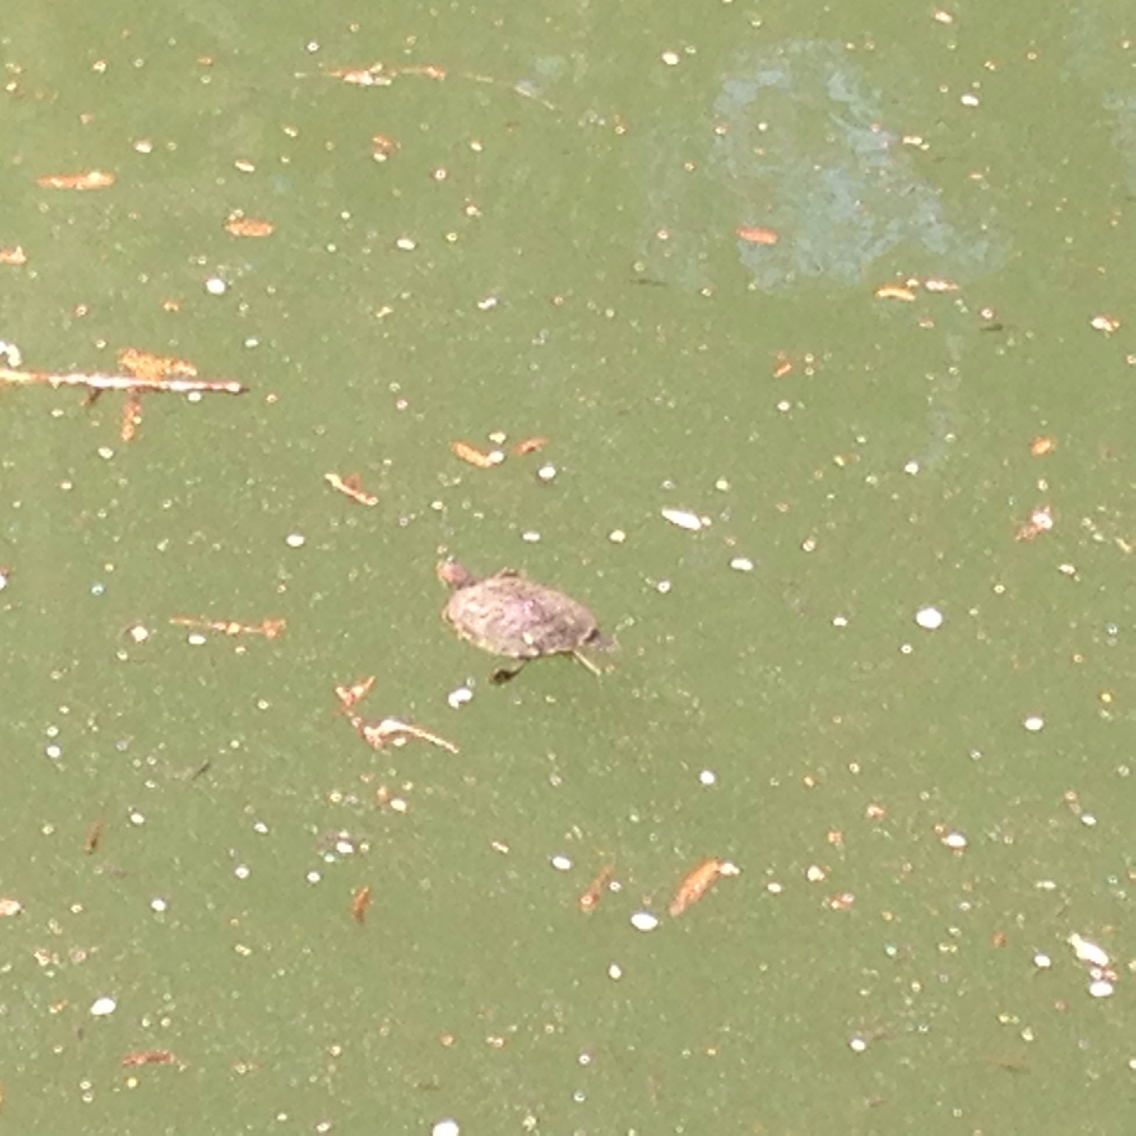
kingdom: Animalia
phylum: Chordata
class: Testudines
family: Emydidae
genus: Trachemys
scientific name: Trachemys scripta
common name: Slider
